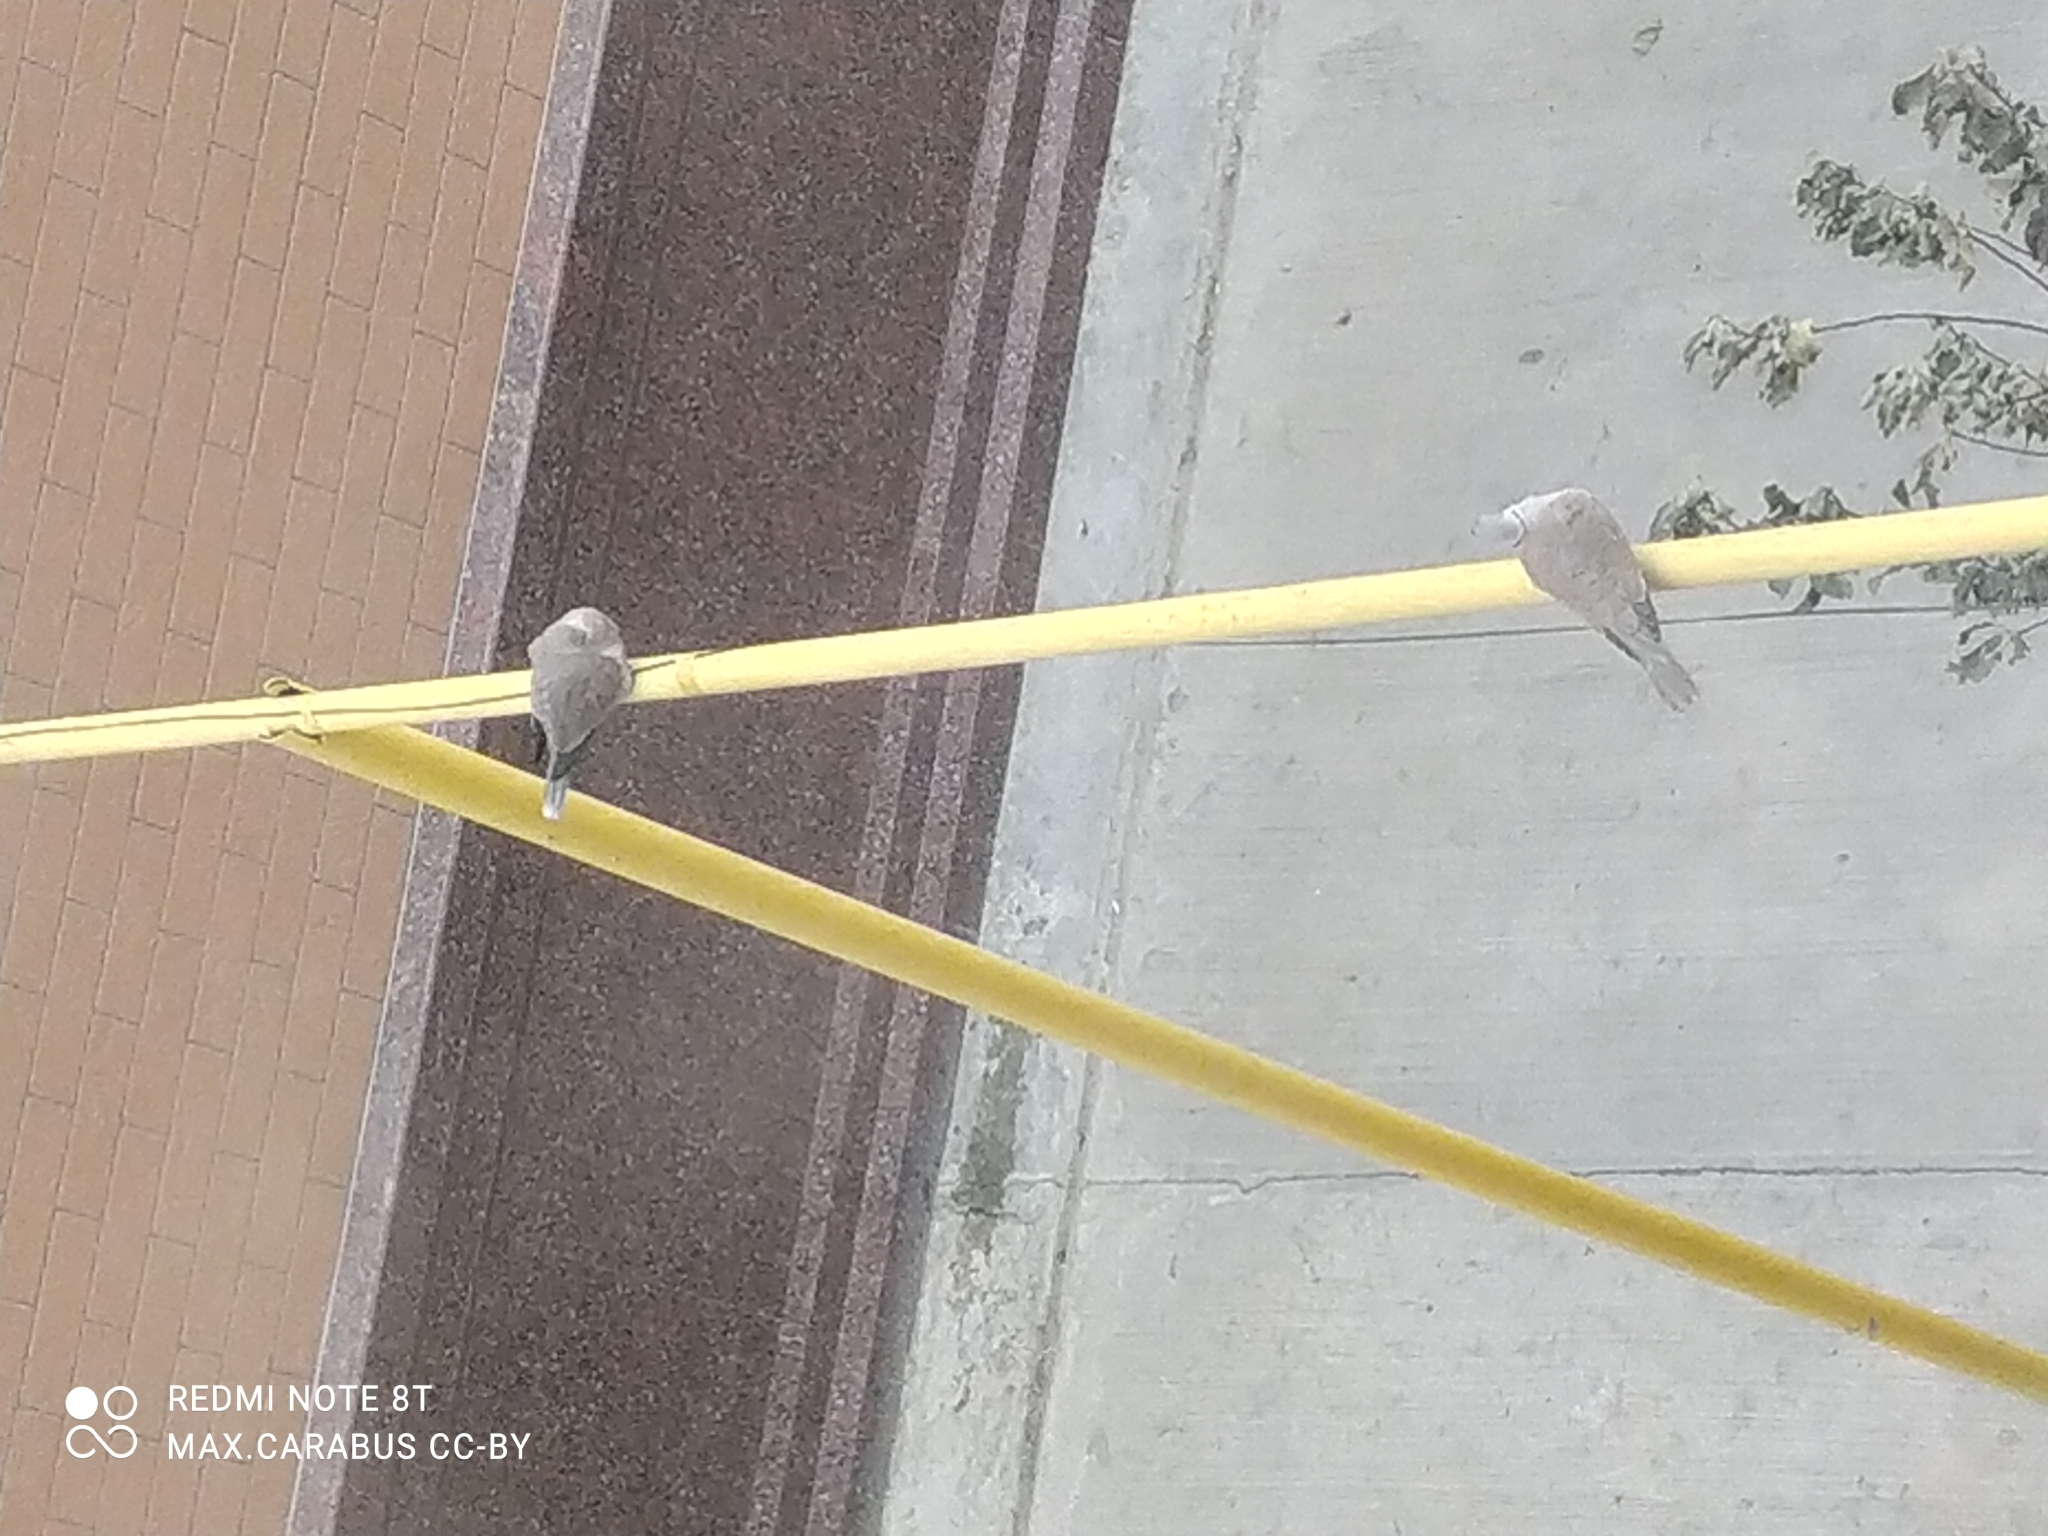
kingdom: Animalia
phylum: Chordata
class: Aves
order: Columbiformes
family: Columbidae
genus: Streptopelia
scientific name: Streptopelia decaocto
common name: Eurasian collared dove
